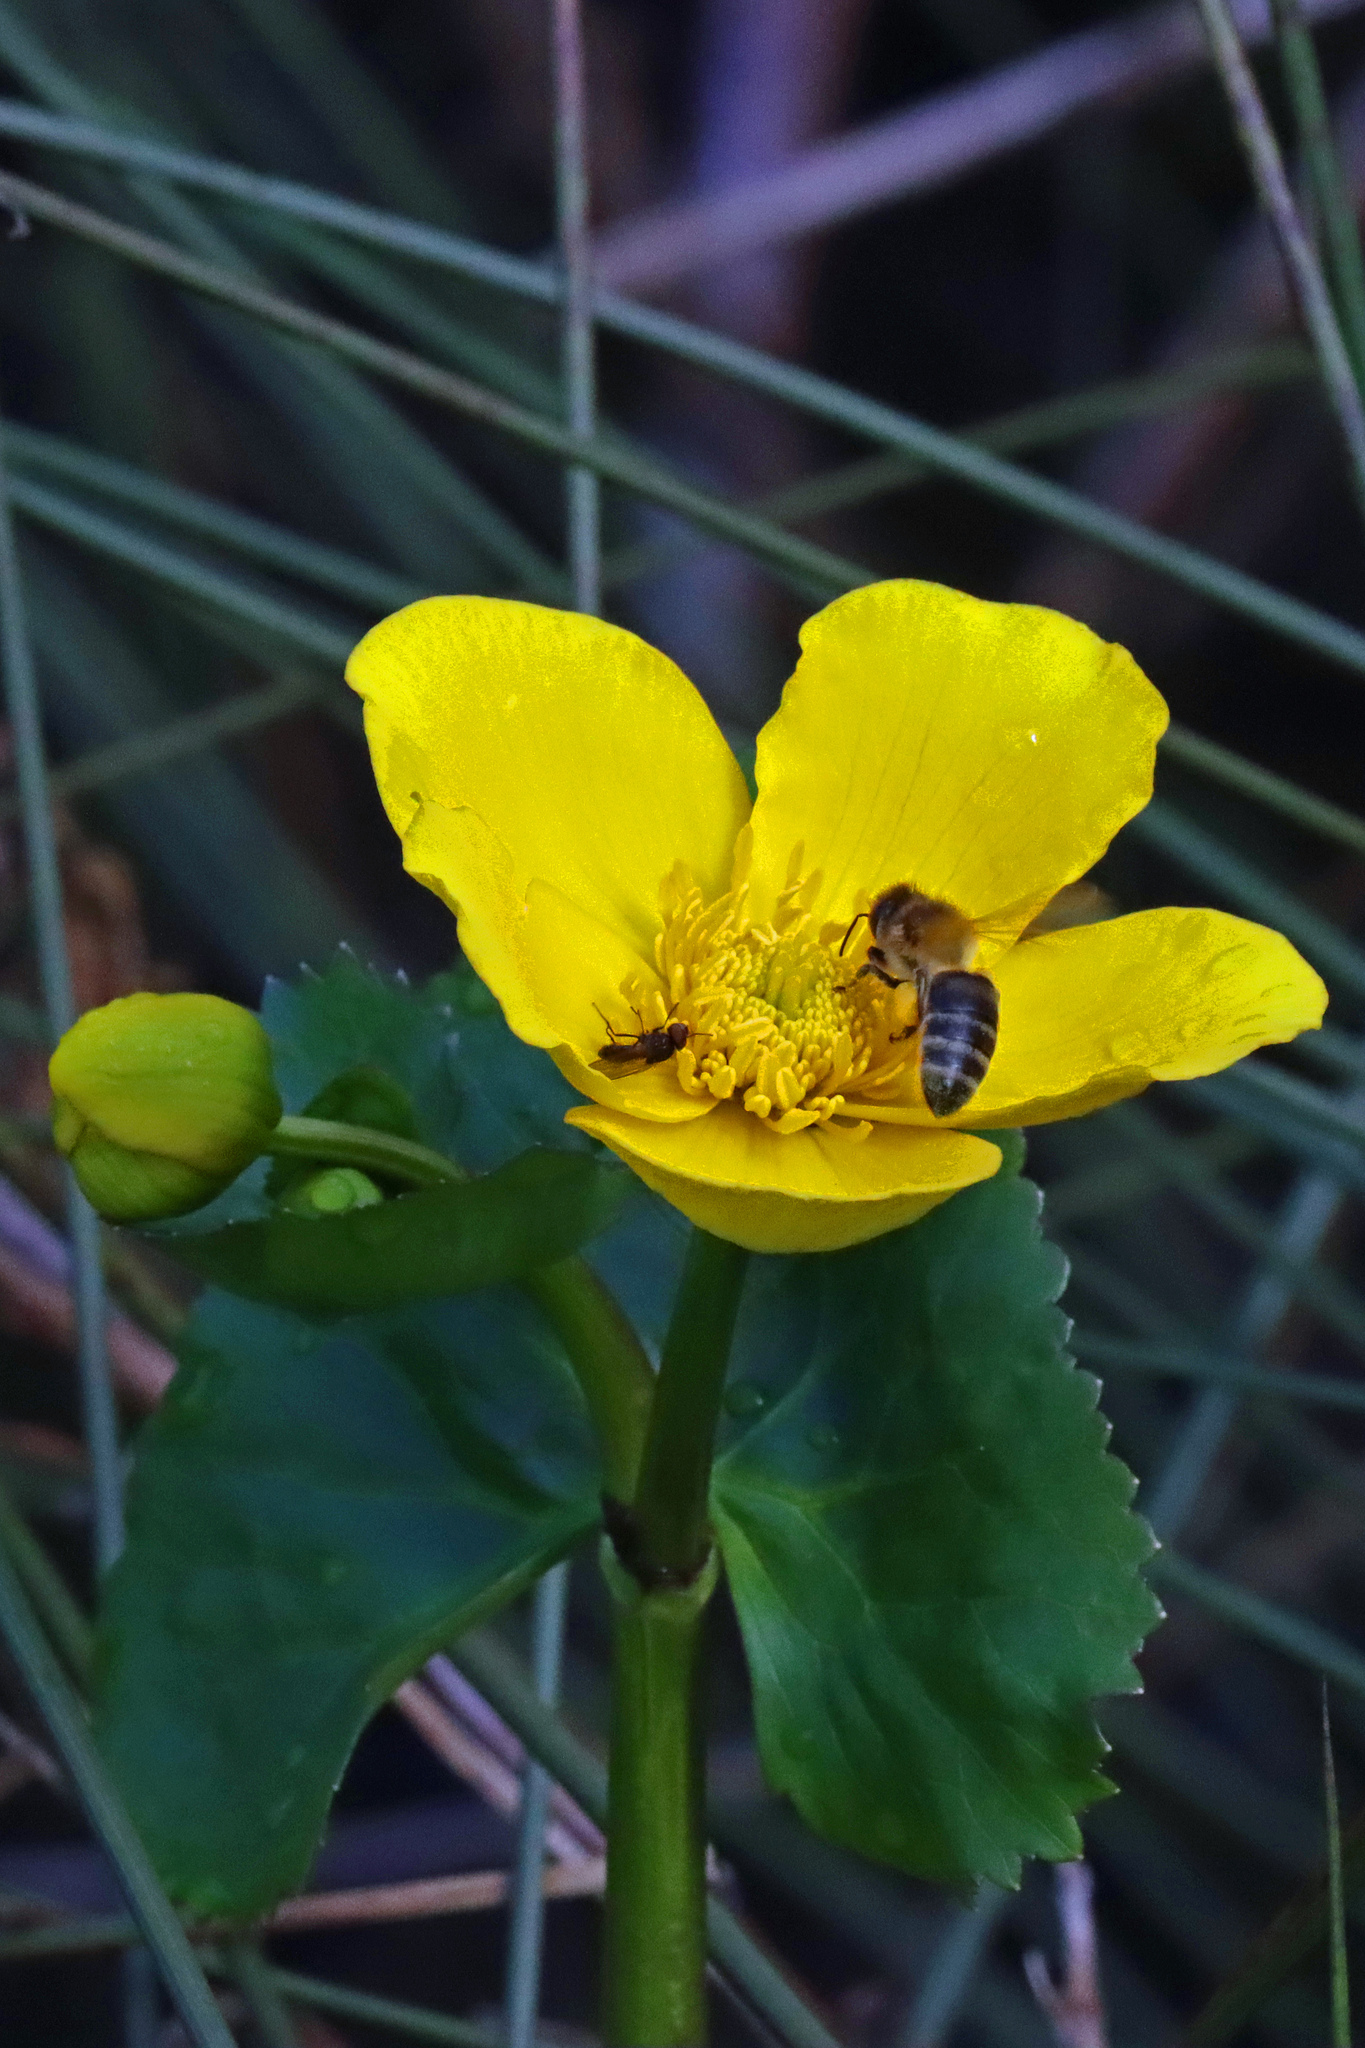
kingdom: Animalia
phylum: Arthropoda
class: Insecta
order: Hymenoptera
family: Apidae
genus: Apis
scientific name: Apis mellifera
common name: Honey bee
